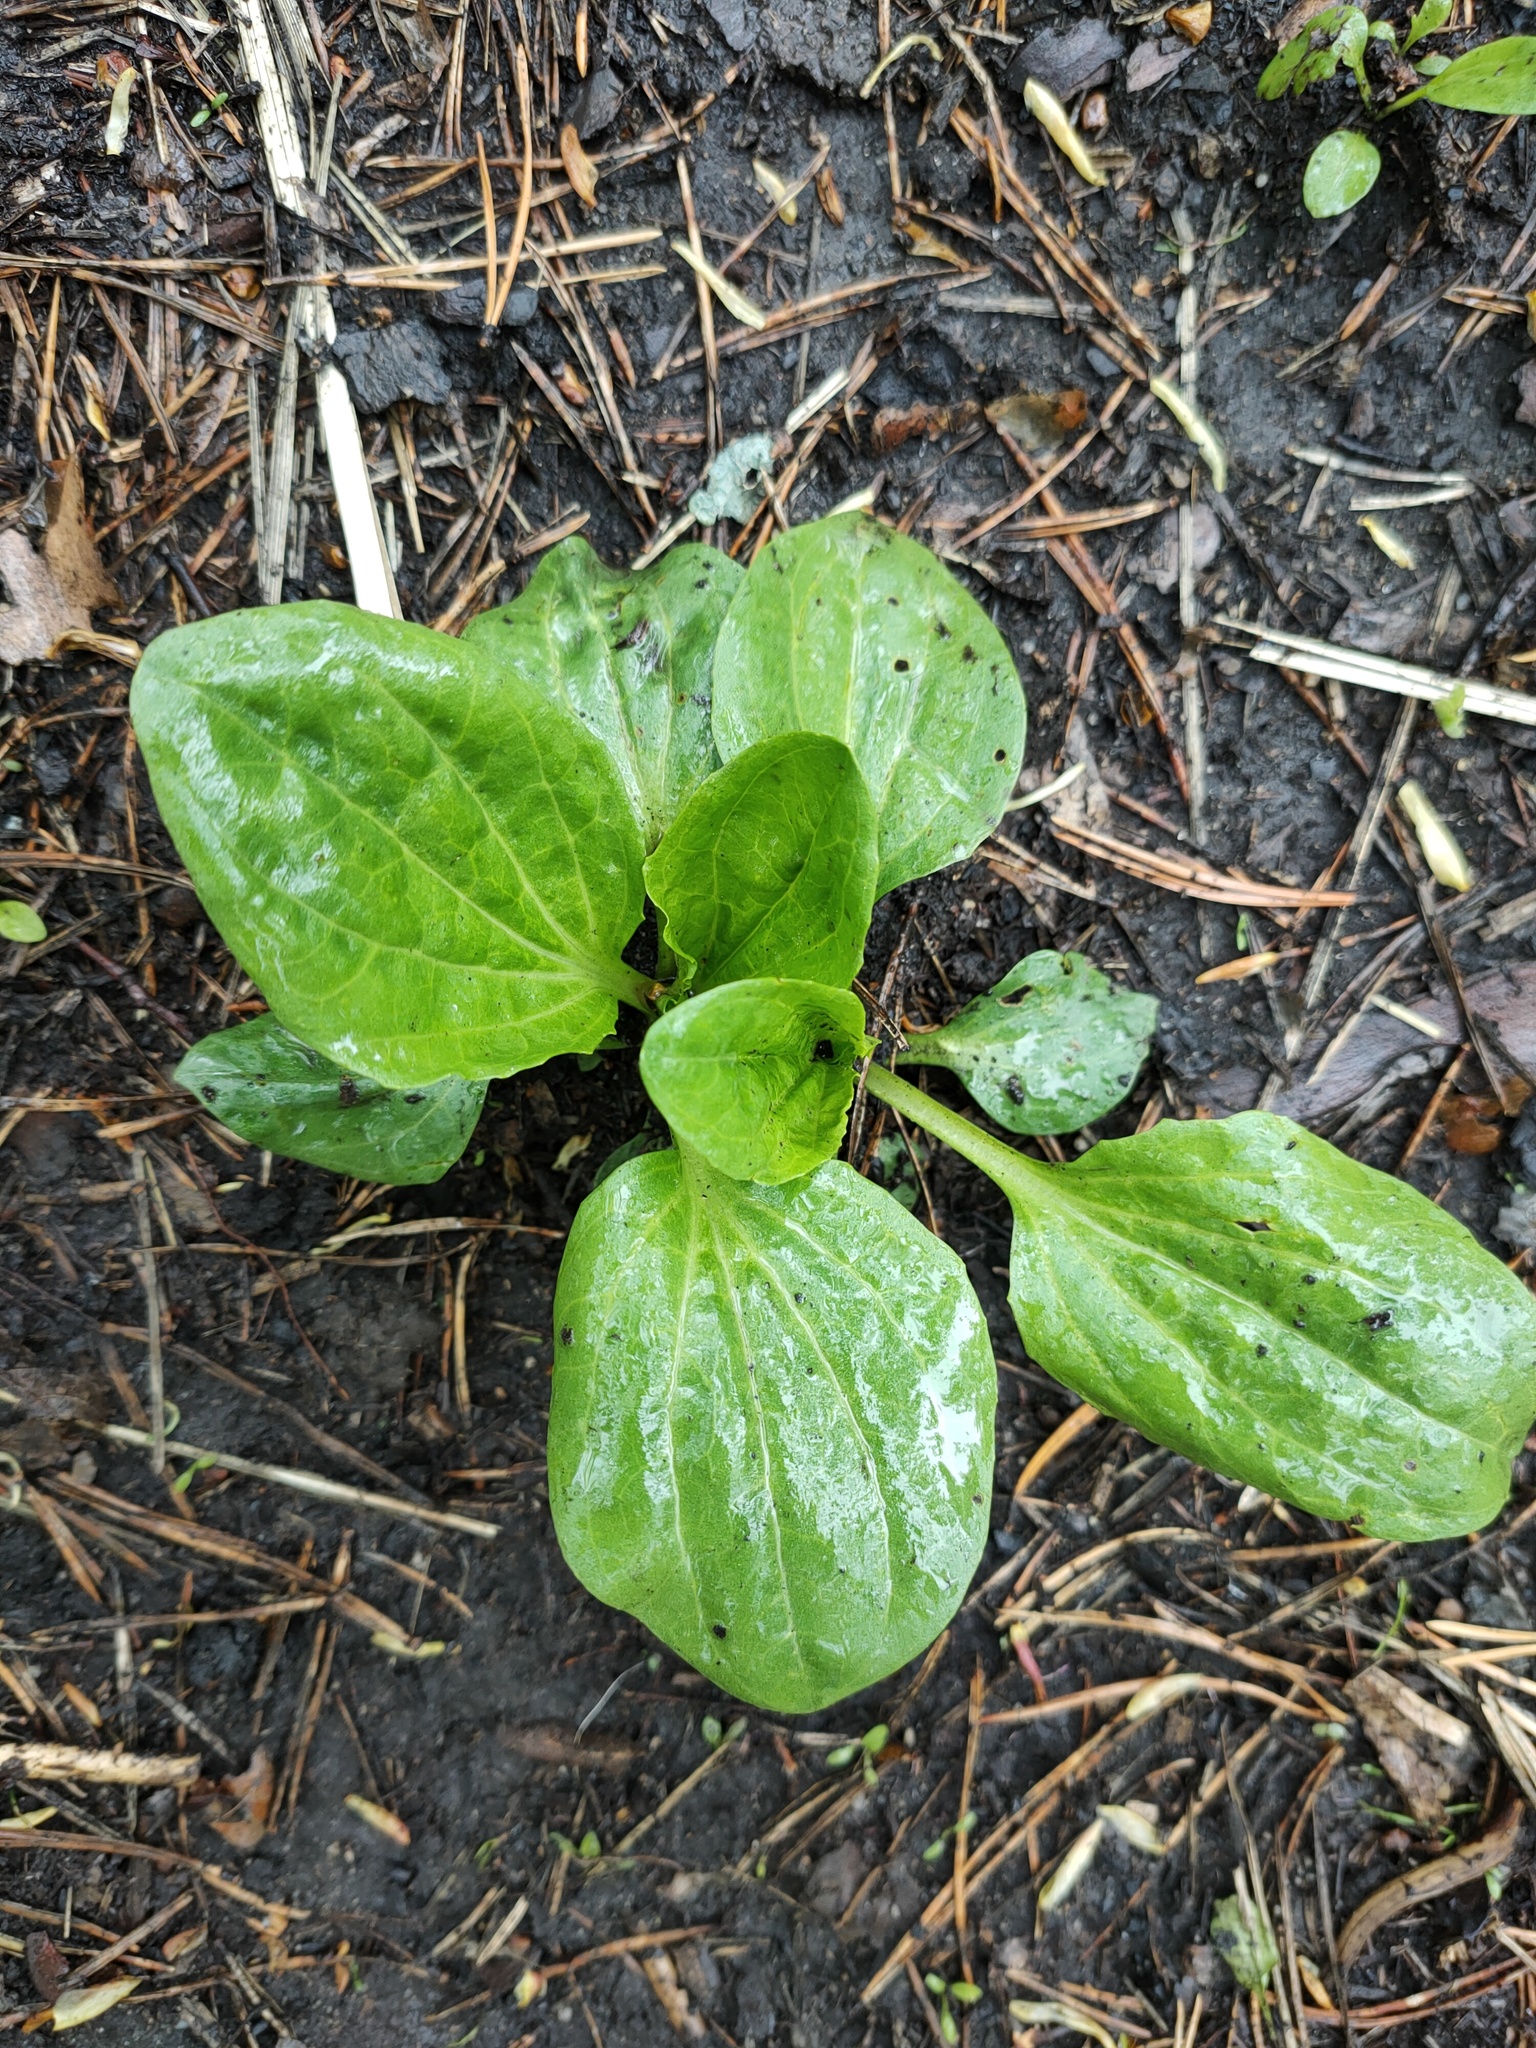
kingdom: Plantae
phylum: Tracheophyta
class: Magnoliopsida
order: Lamiales
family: Plantaginaceae
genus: Plantago
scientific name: Plantago major
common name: Common plantain
